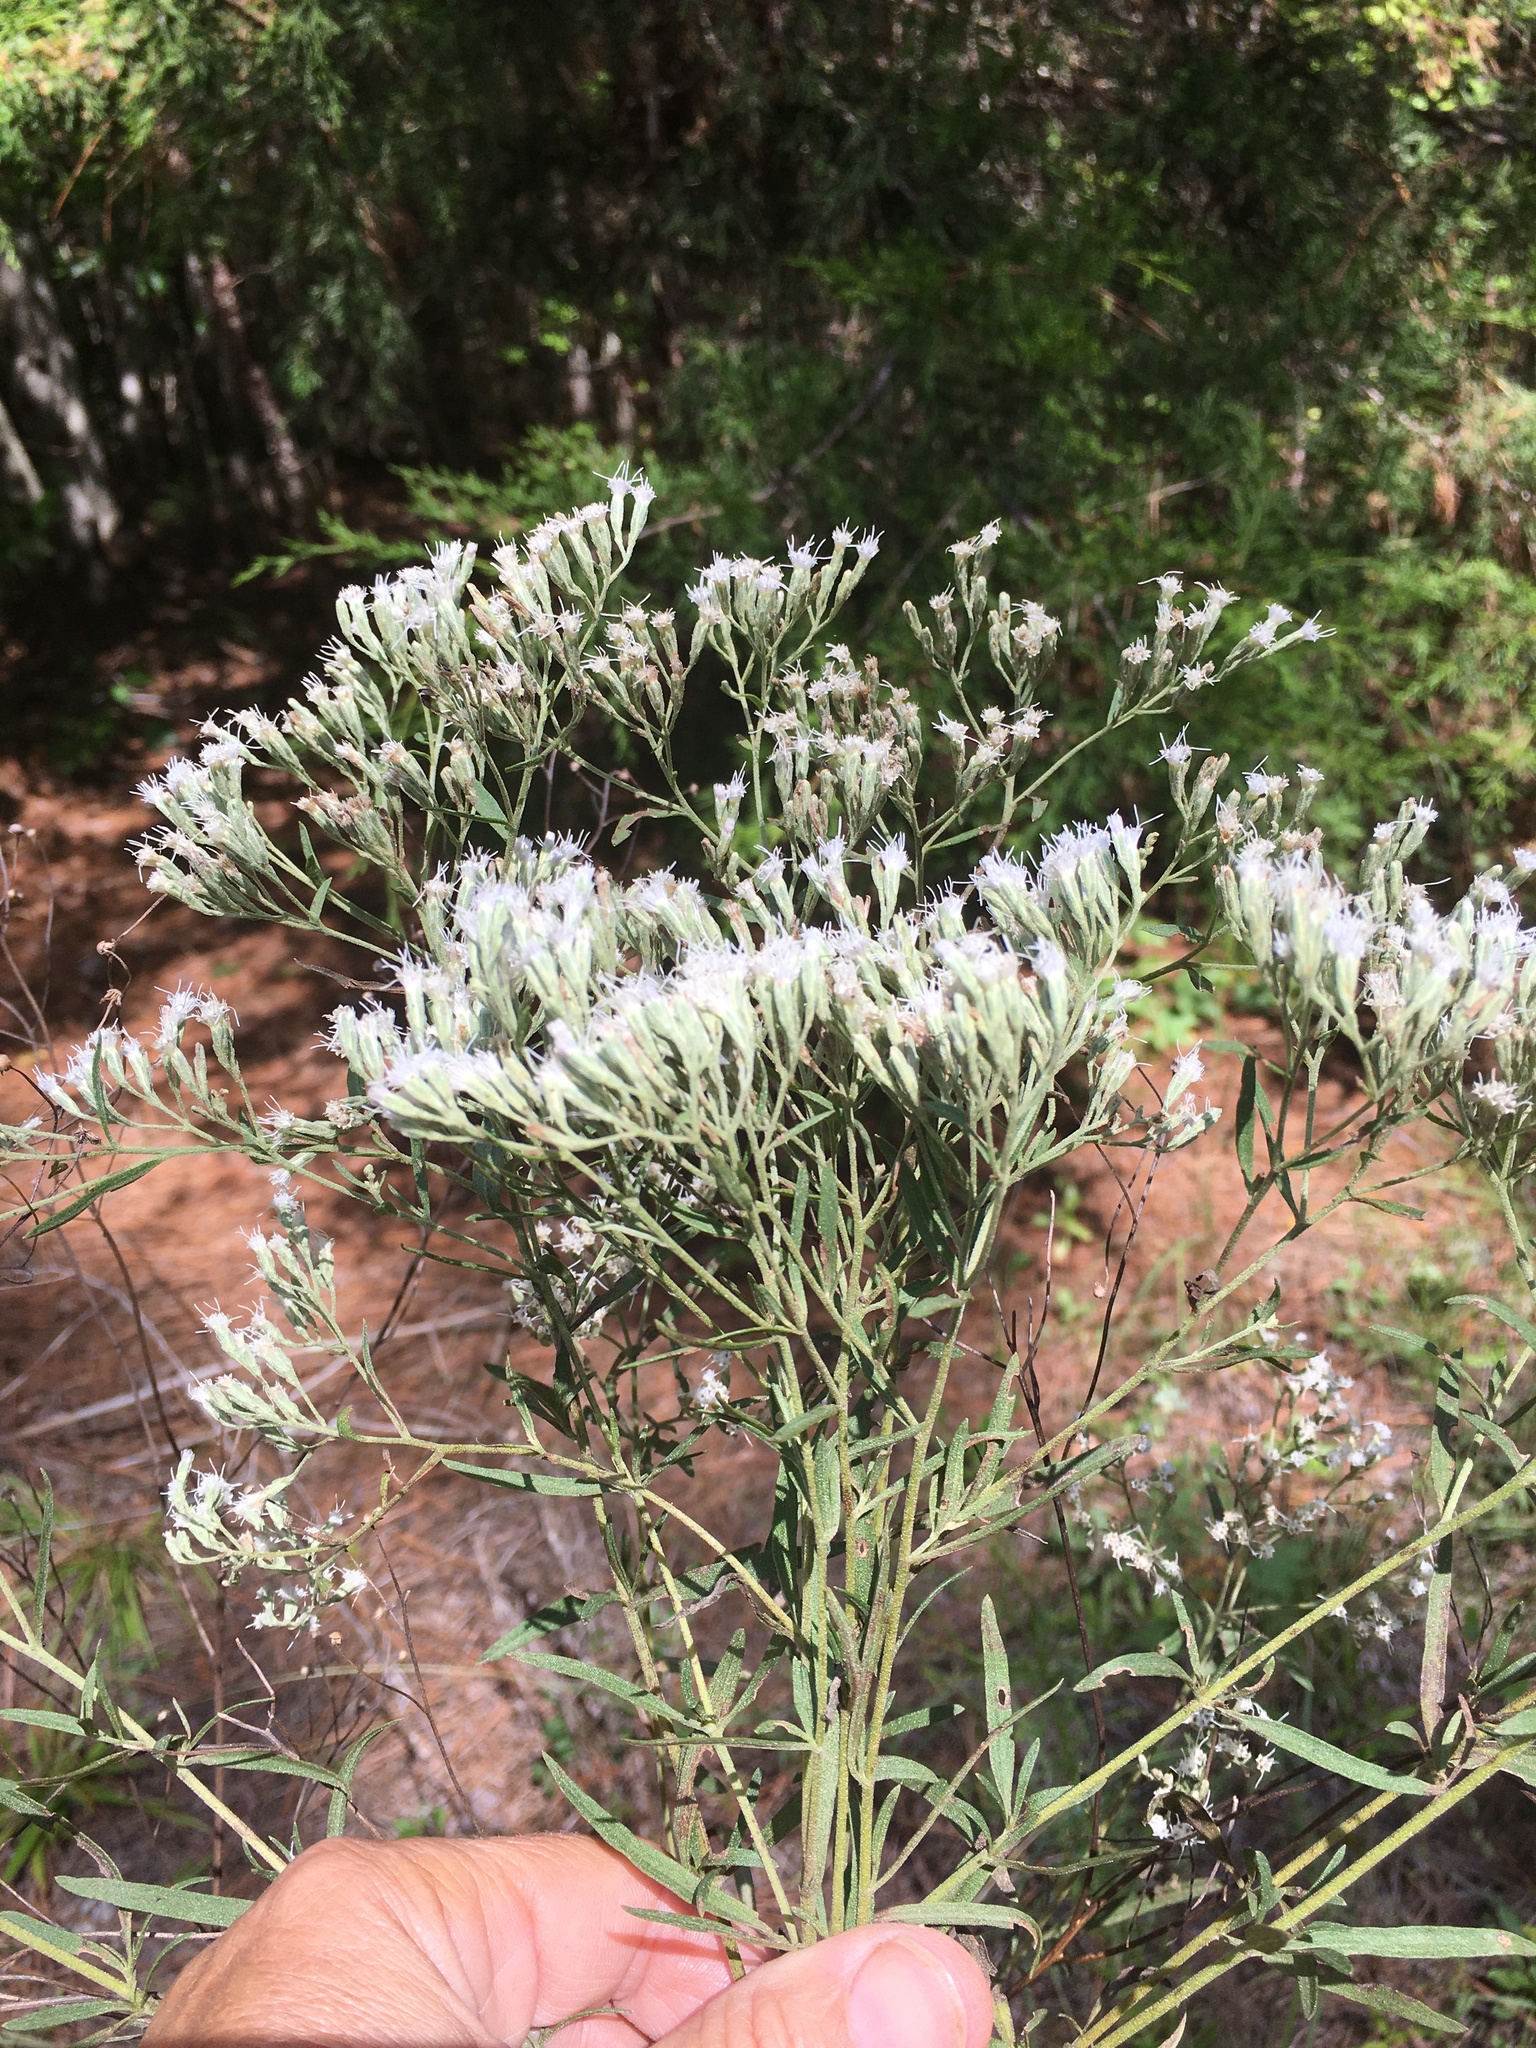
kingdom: Plantae
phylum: Tracheophyta
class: Magnoliopsida
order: Asterales
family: Asteraceae
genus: Eupatorium
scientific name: Eupatorium torreyanum
